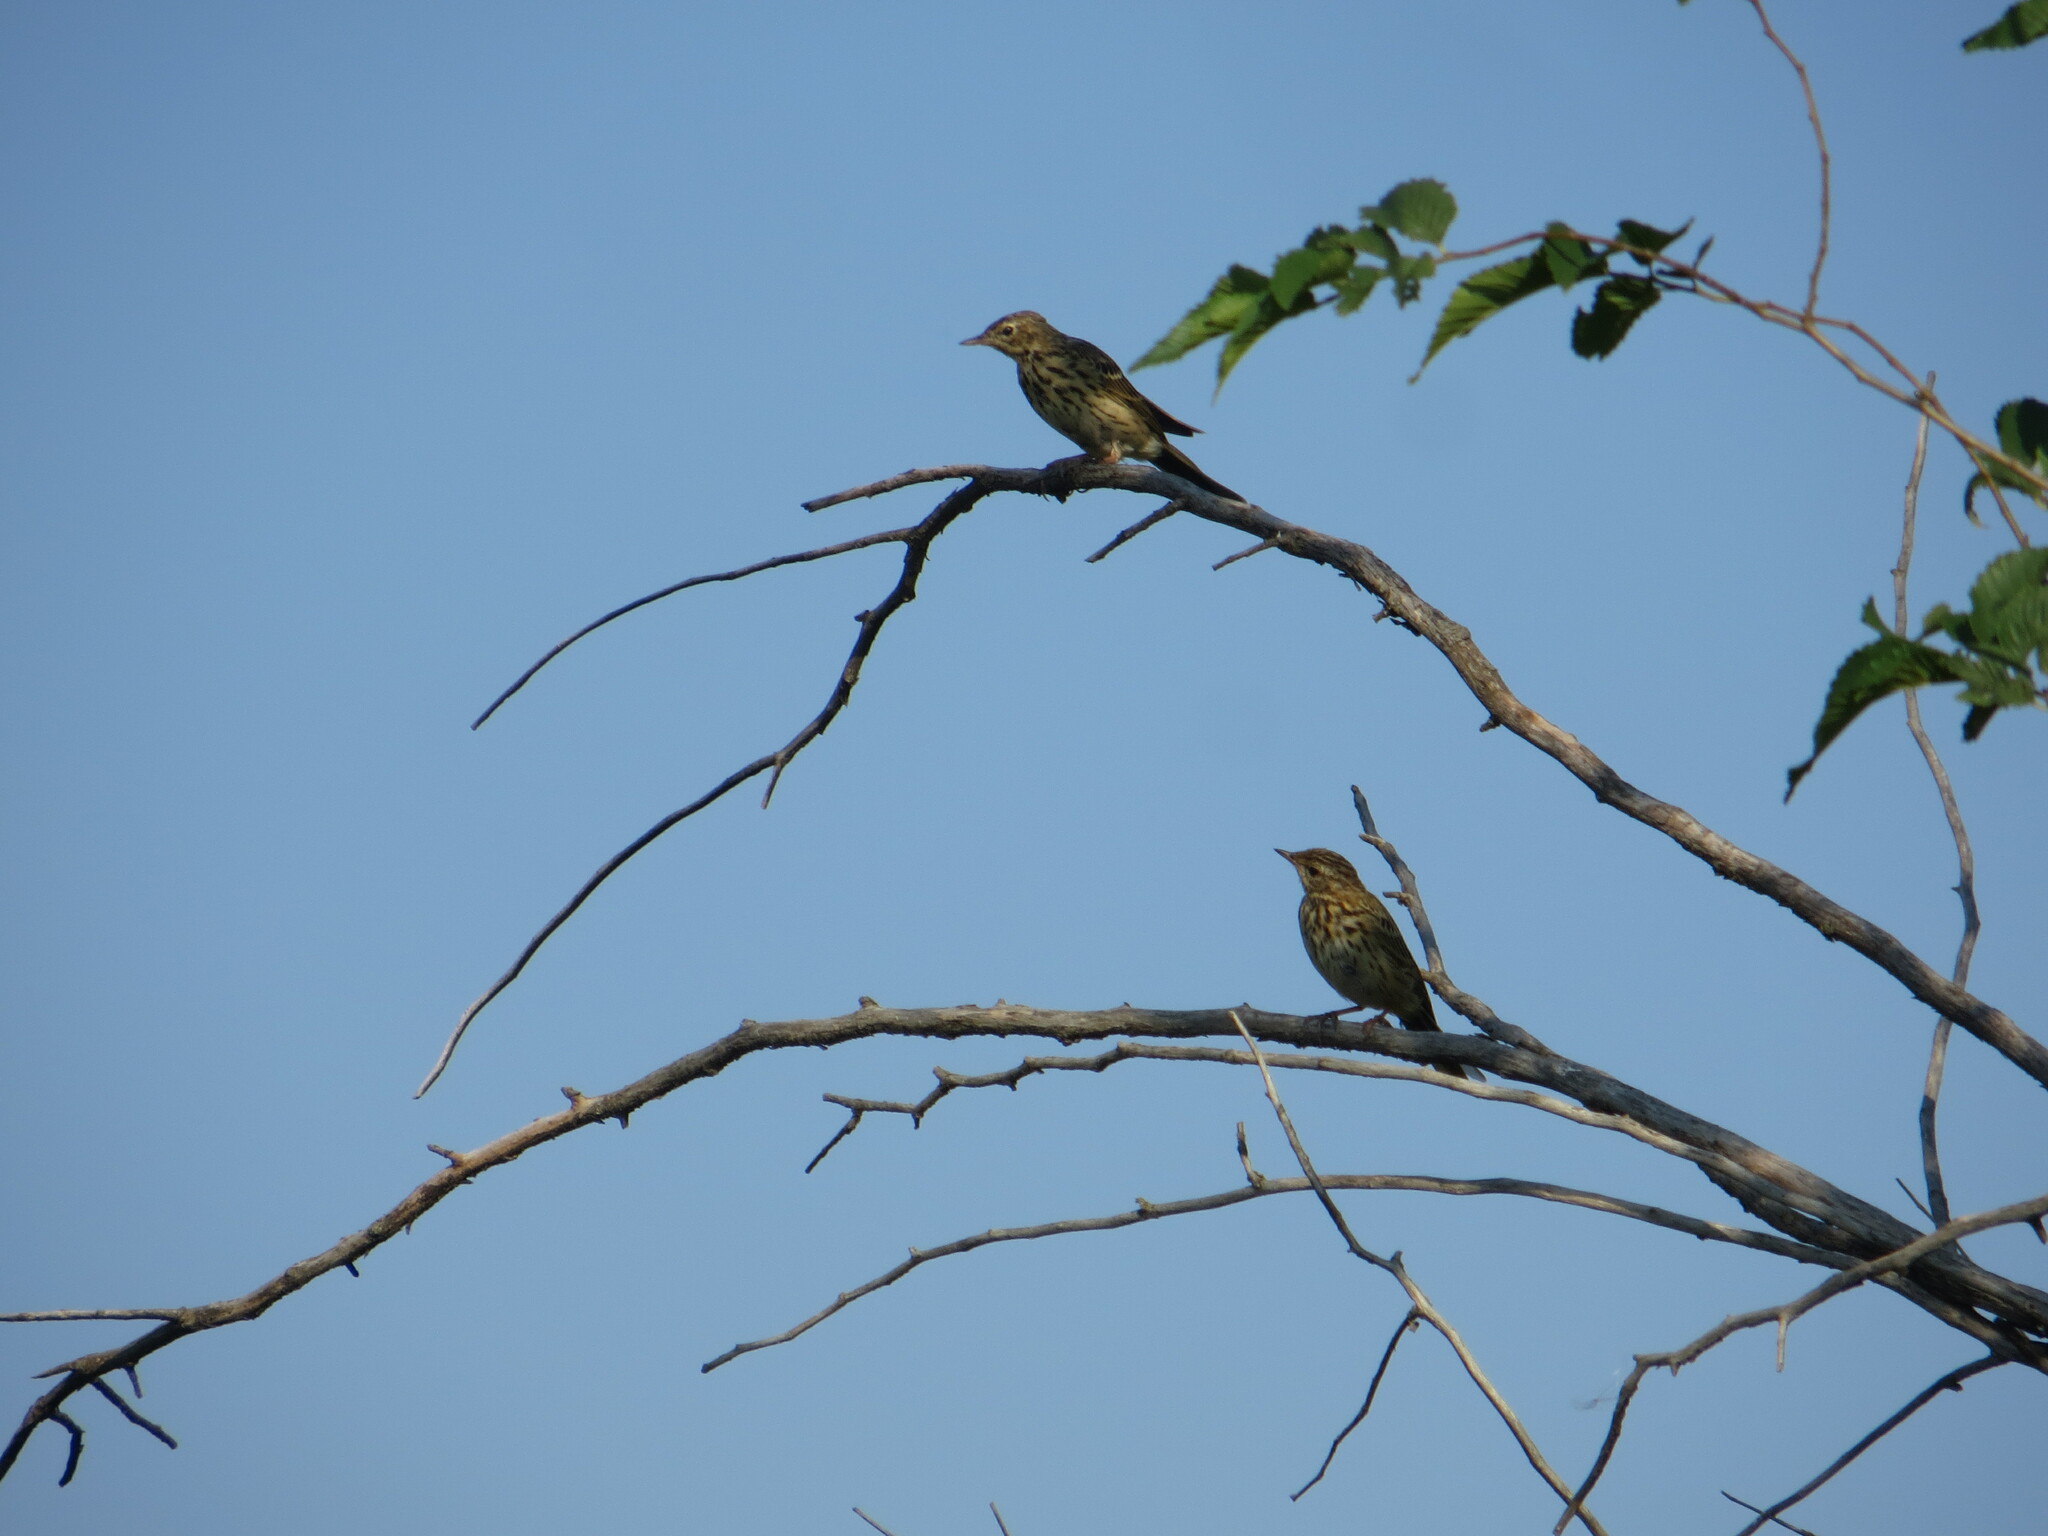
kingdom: Animalia
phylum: Chordata
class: Aves
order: Passeriformes
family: Motacillidae
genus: Anthus
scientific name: Anthus trivialis
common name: Tree pipit
